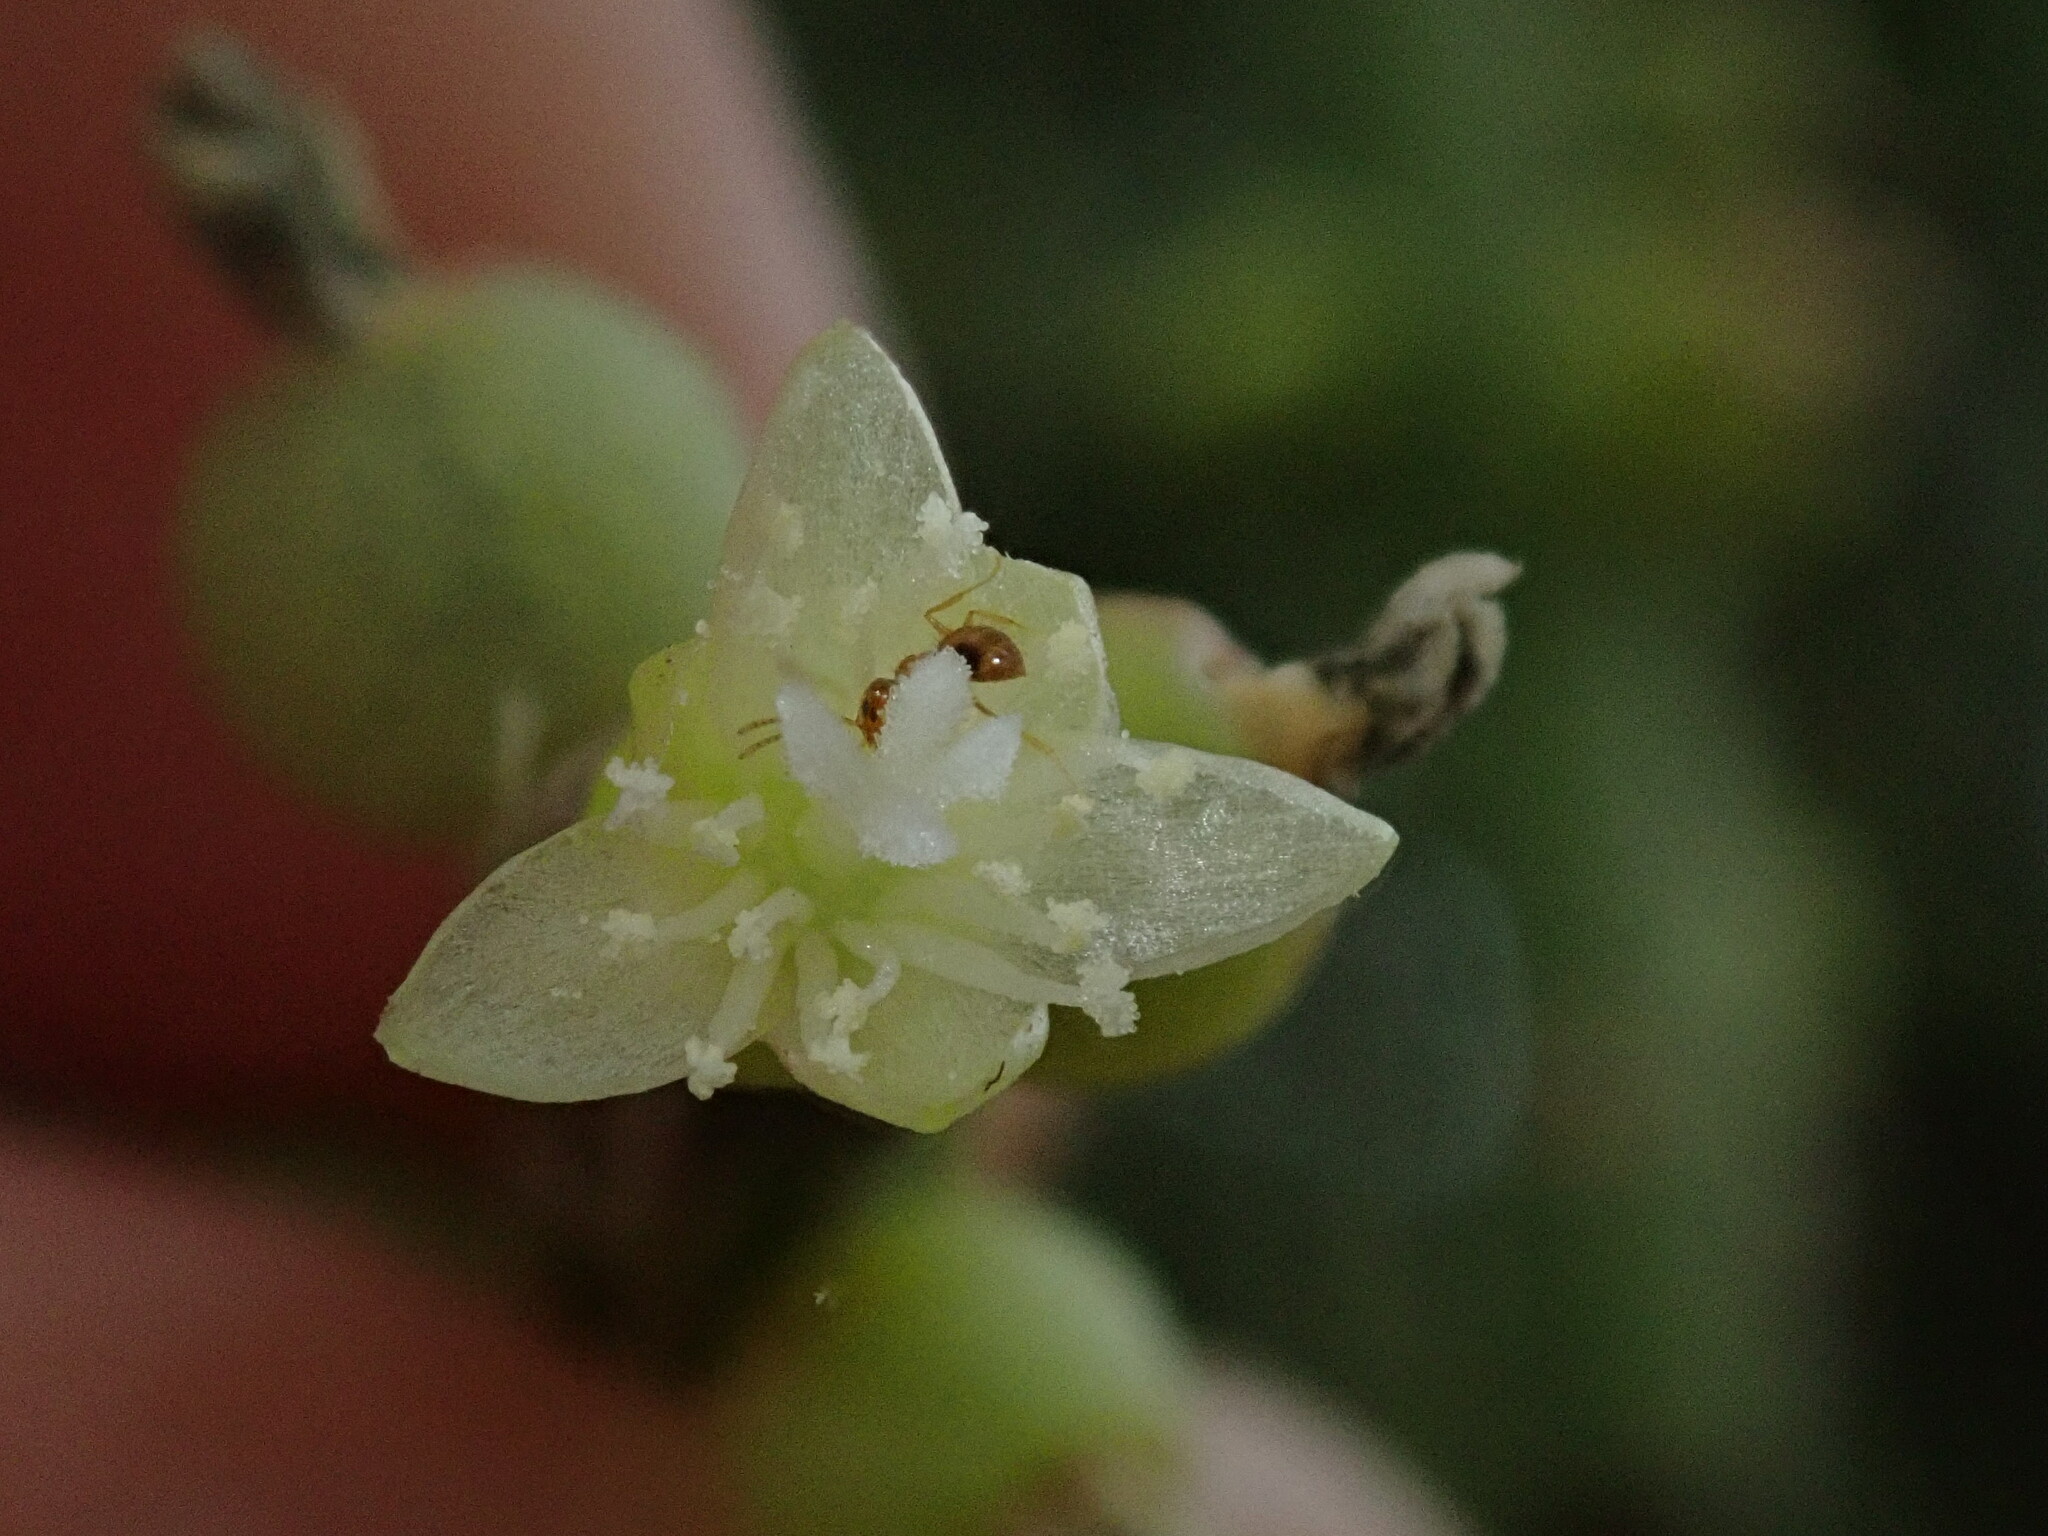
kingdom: Plantae
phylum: Tracheophyta
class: Magnoliopsida
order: Caryophyllales
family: Cactaceae
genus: Rhipsalis
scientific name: Rhipsalis floccosa
